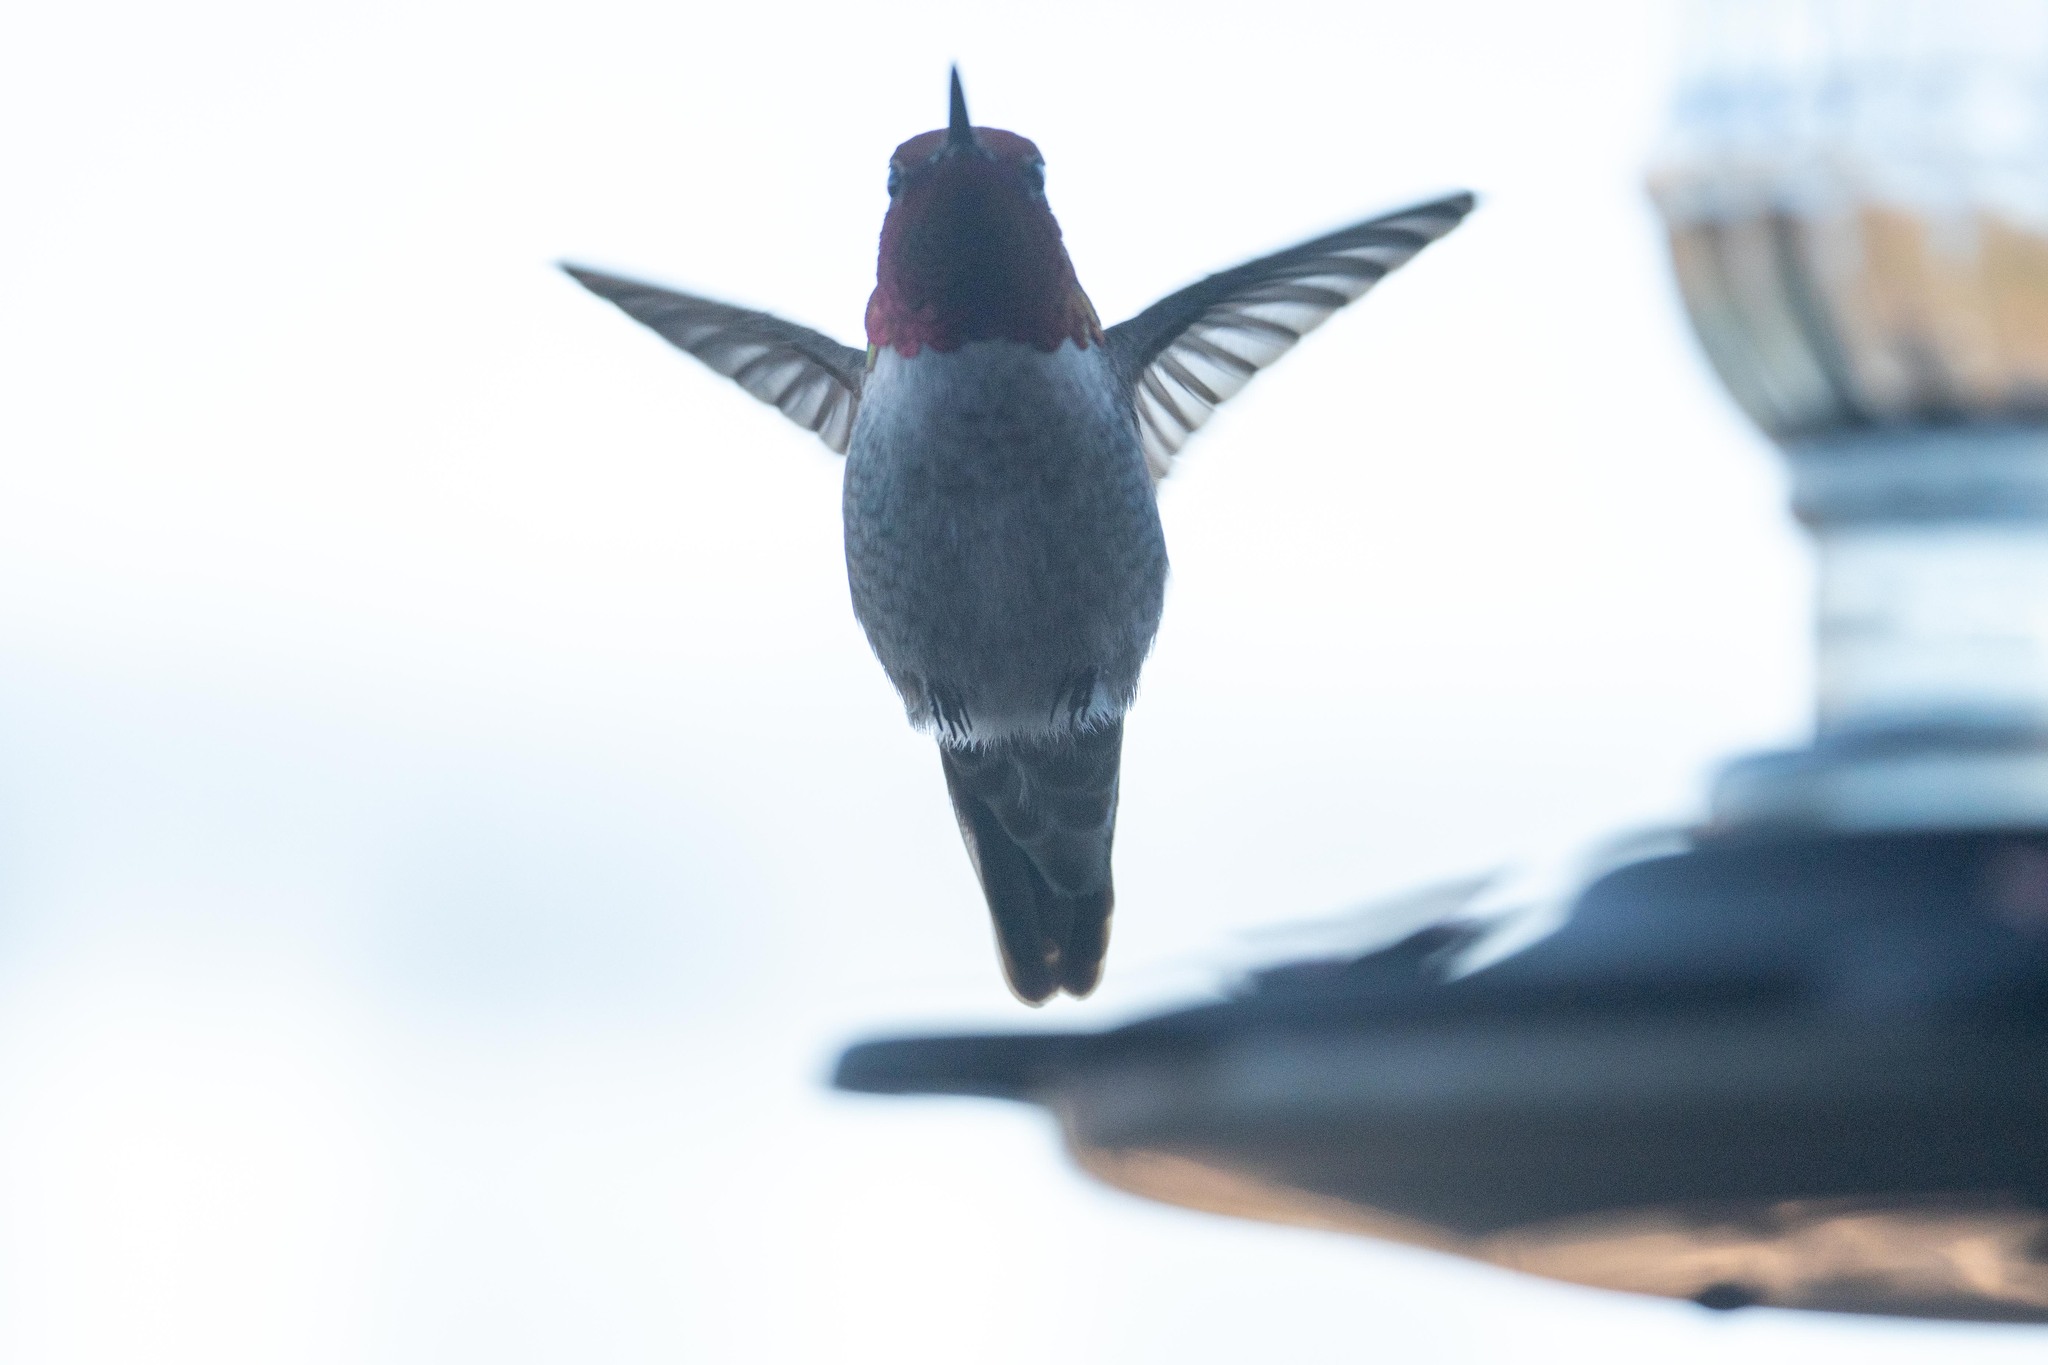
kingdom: Animalia
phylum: Chordata
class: Aves
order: Apodiformes
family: Trochilidae
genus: Calypte
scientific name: Calypte anna
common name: Anna's hummingbird
